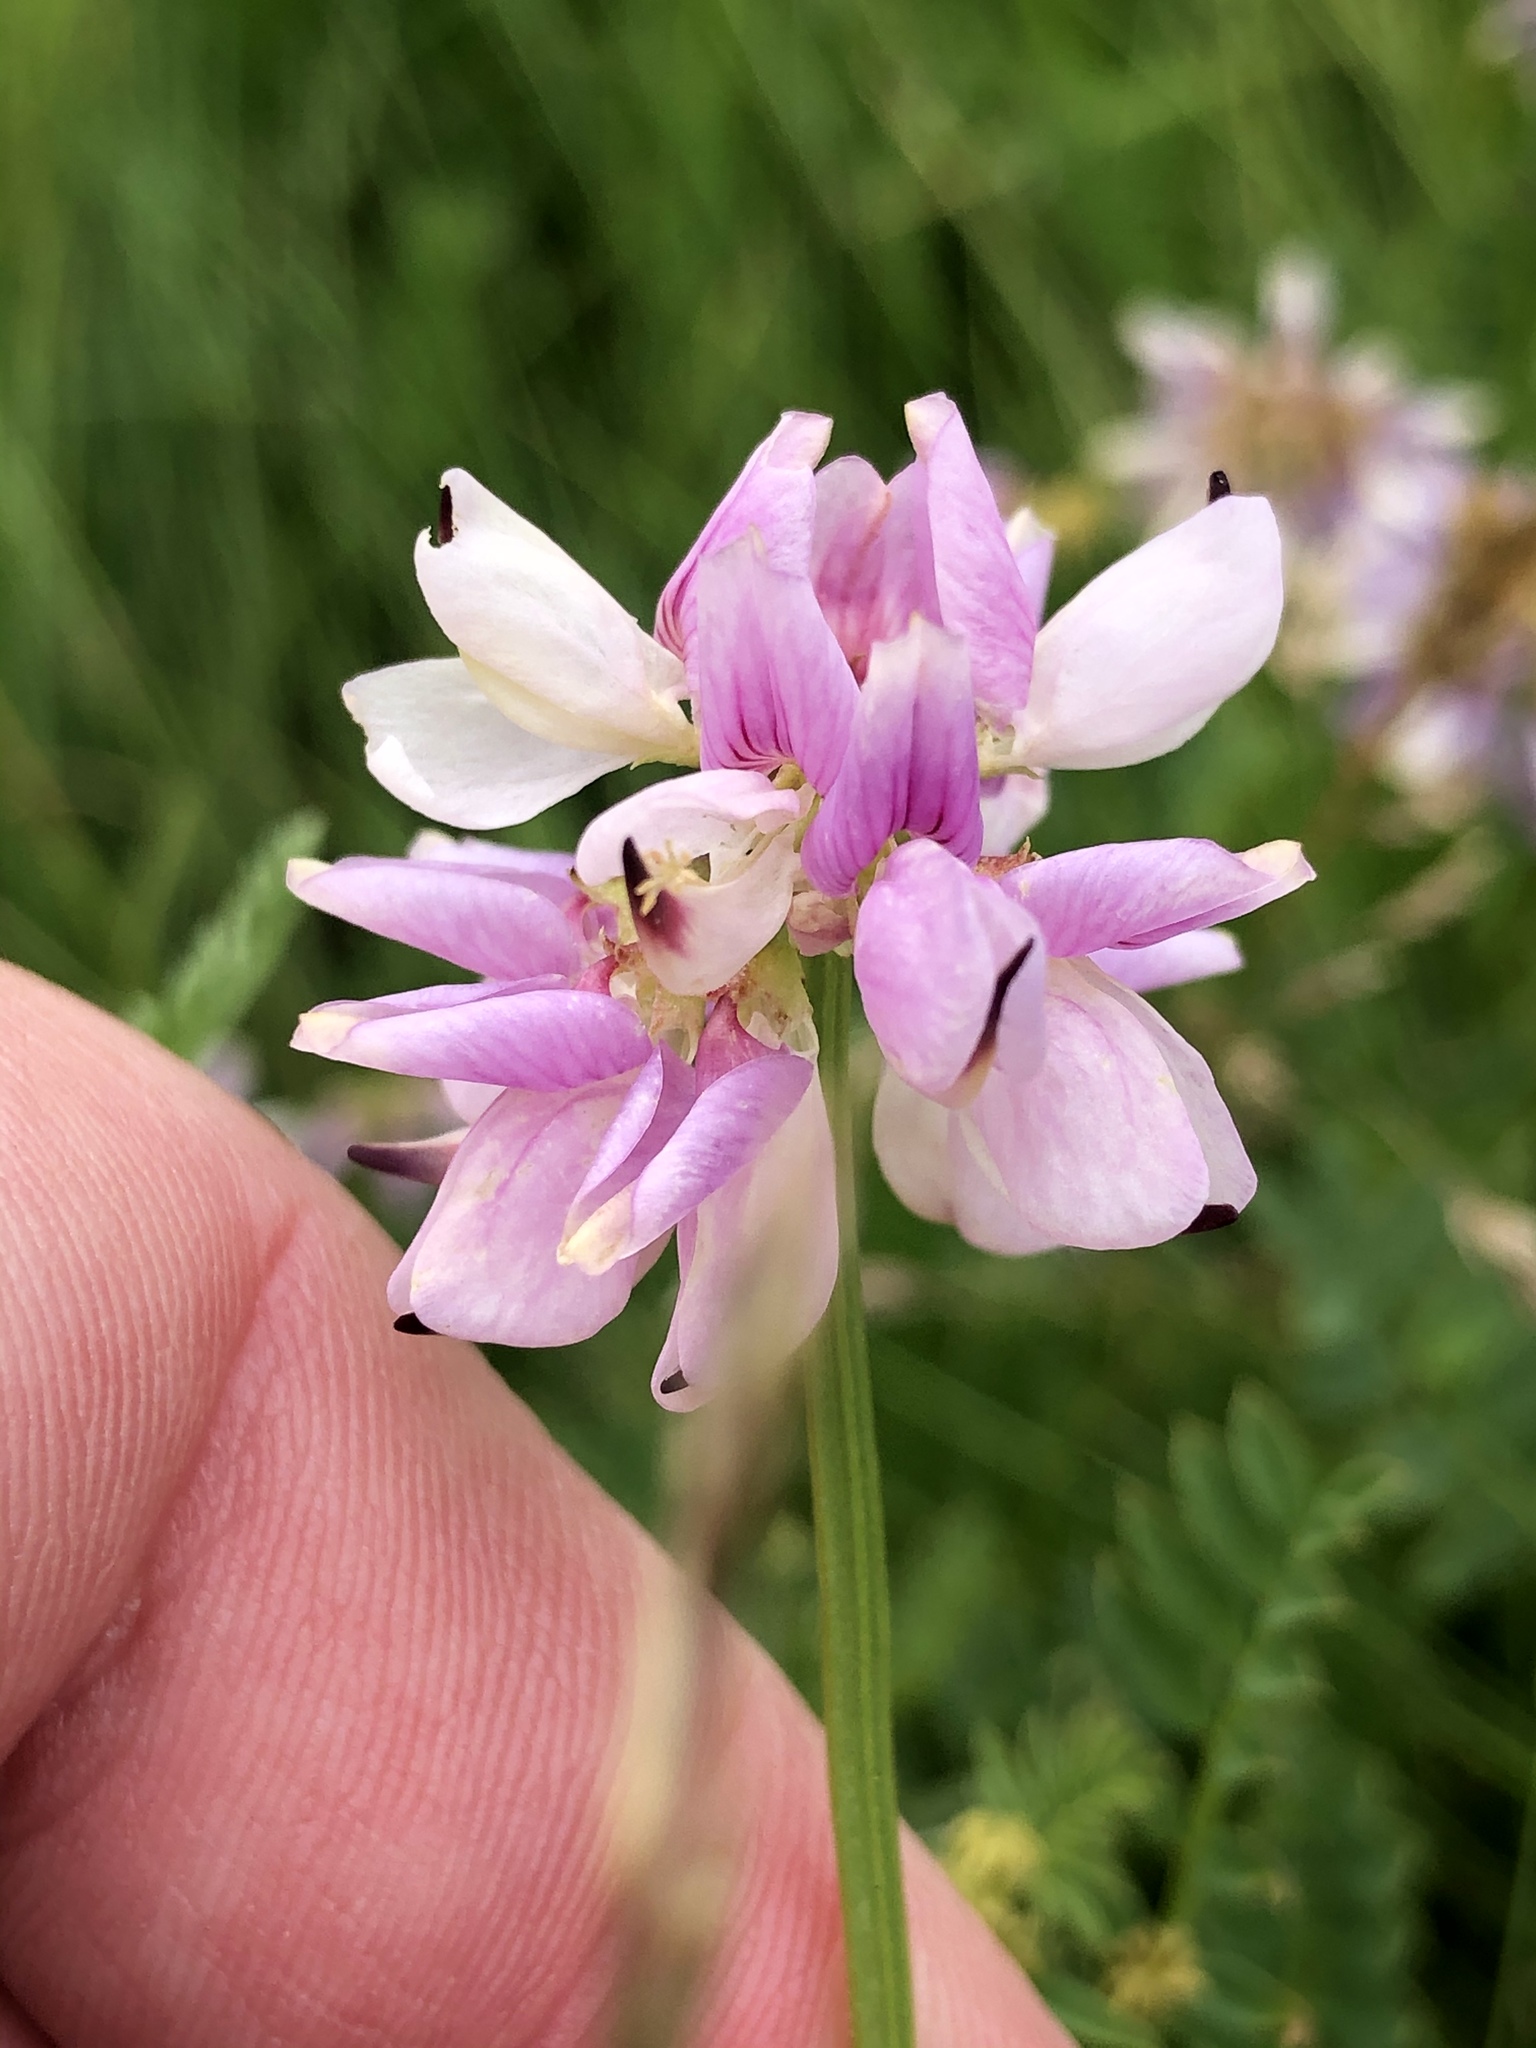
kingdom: Plantae
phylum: Tracheophyta
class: Magnoliopsida
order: Fabales
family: Fabaceae
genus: Coronilla
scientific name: Coronilla varia
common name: Crownvetch
